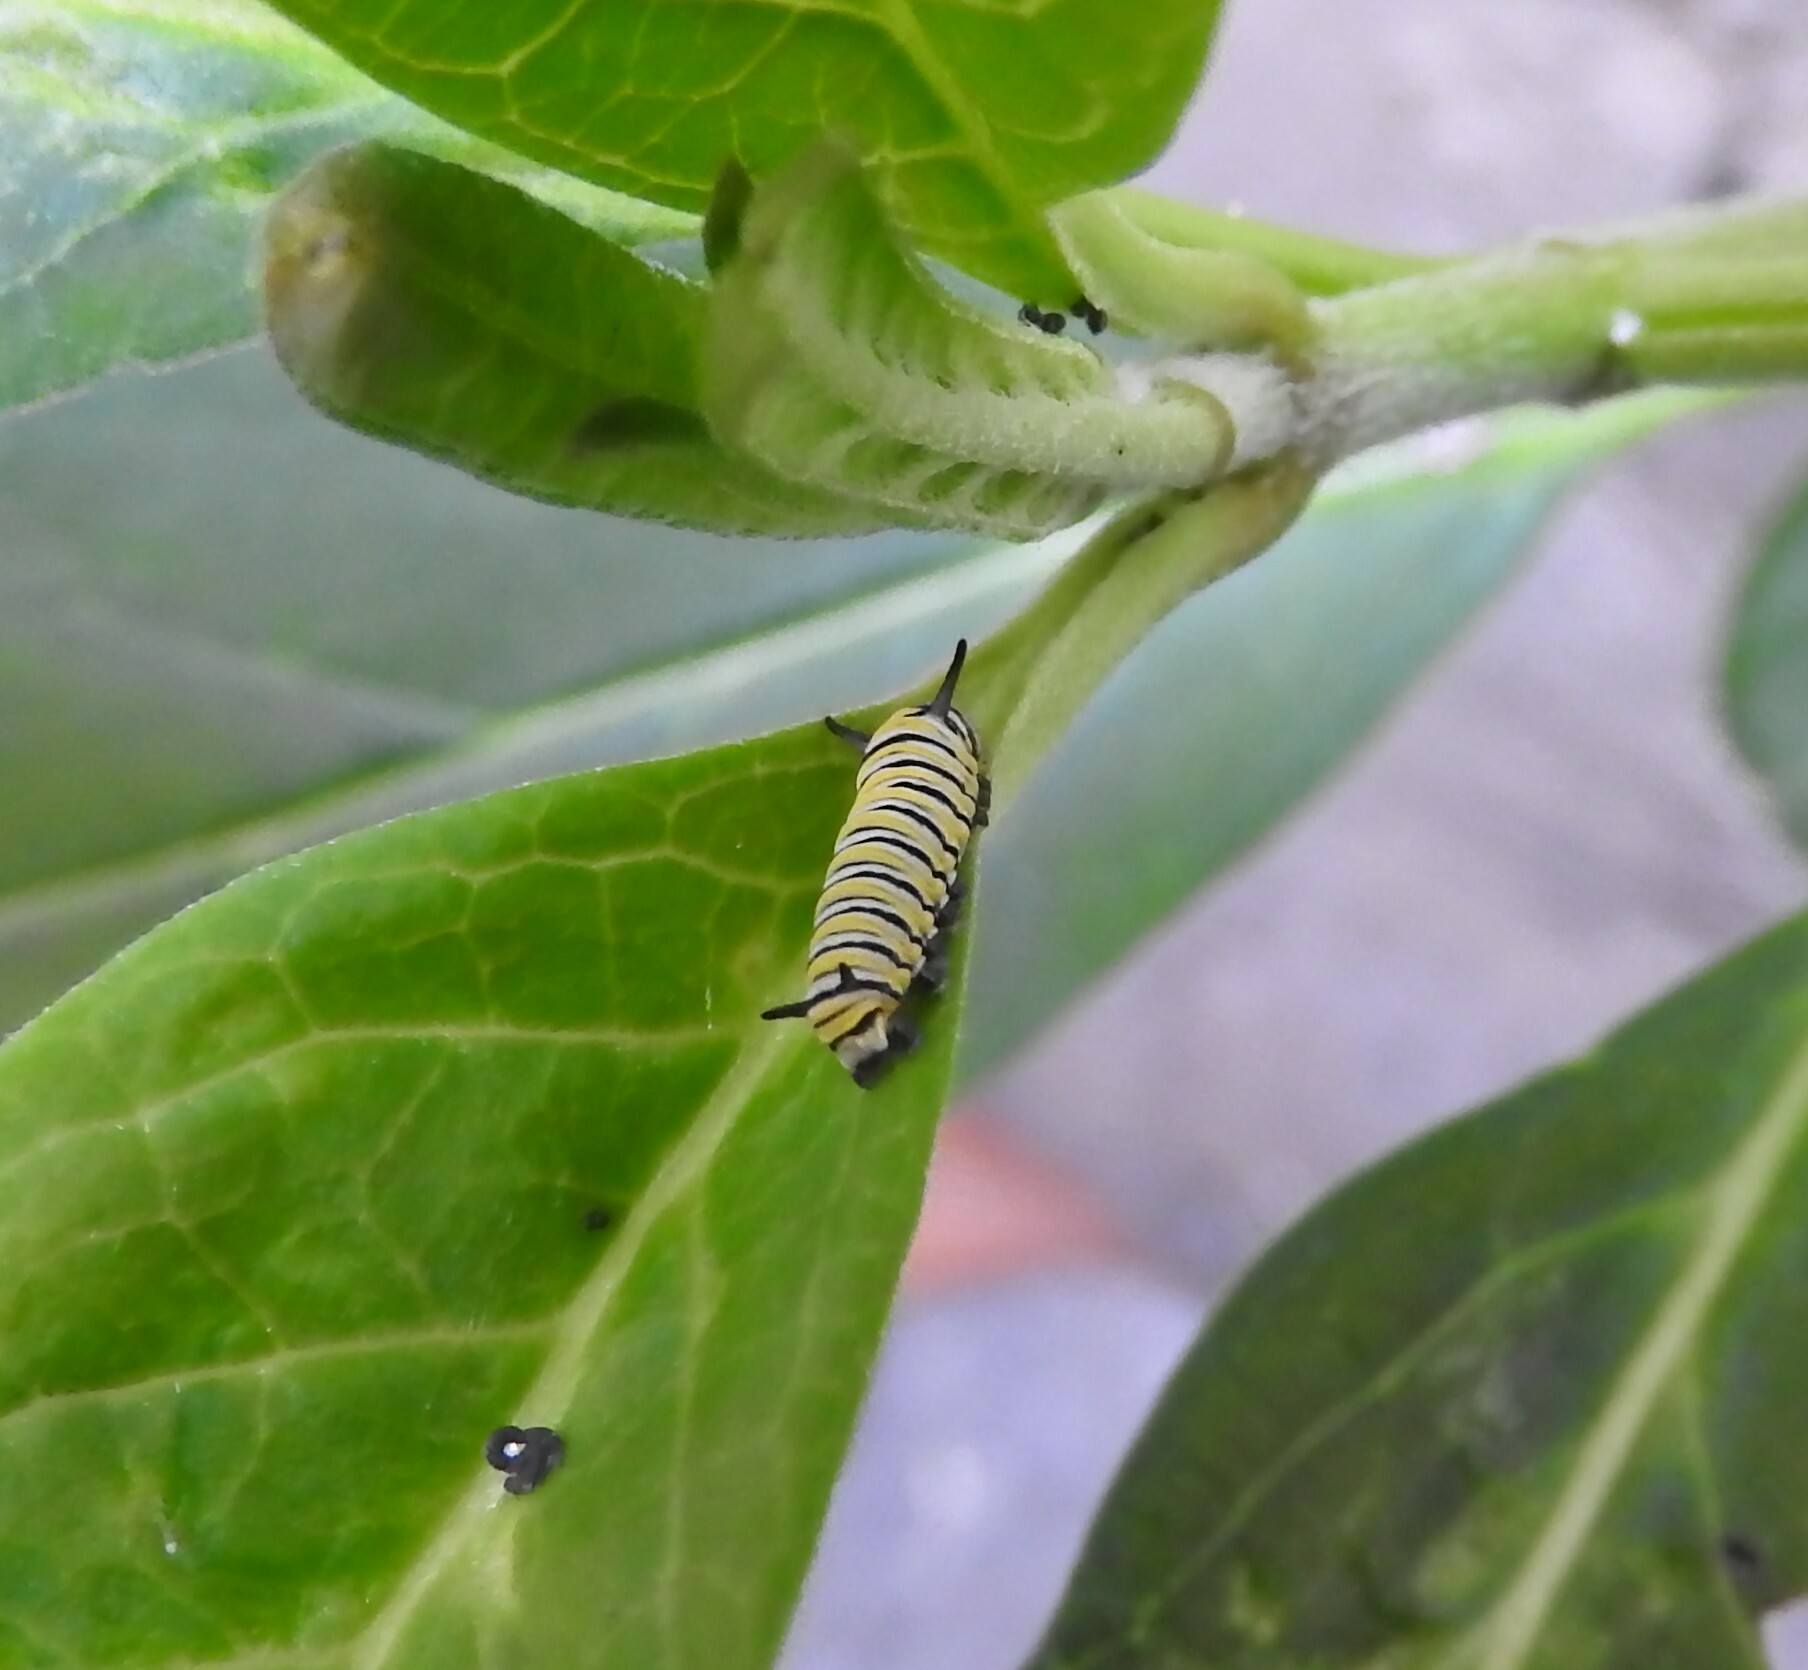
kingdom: Animalia
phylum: Arthropoda
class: Insecta
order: Lepidoptera
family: Nymphalidae
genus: Danaus
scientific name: Danaus plexippus
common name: Monarch
